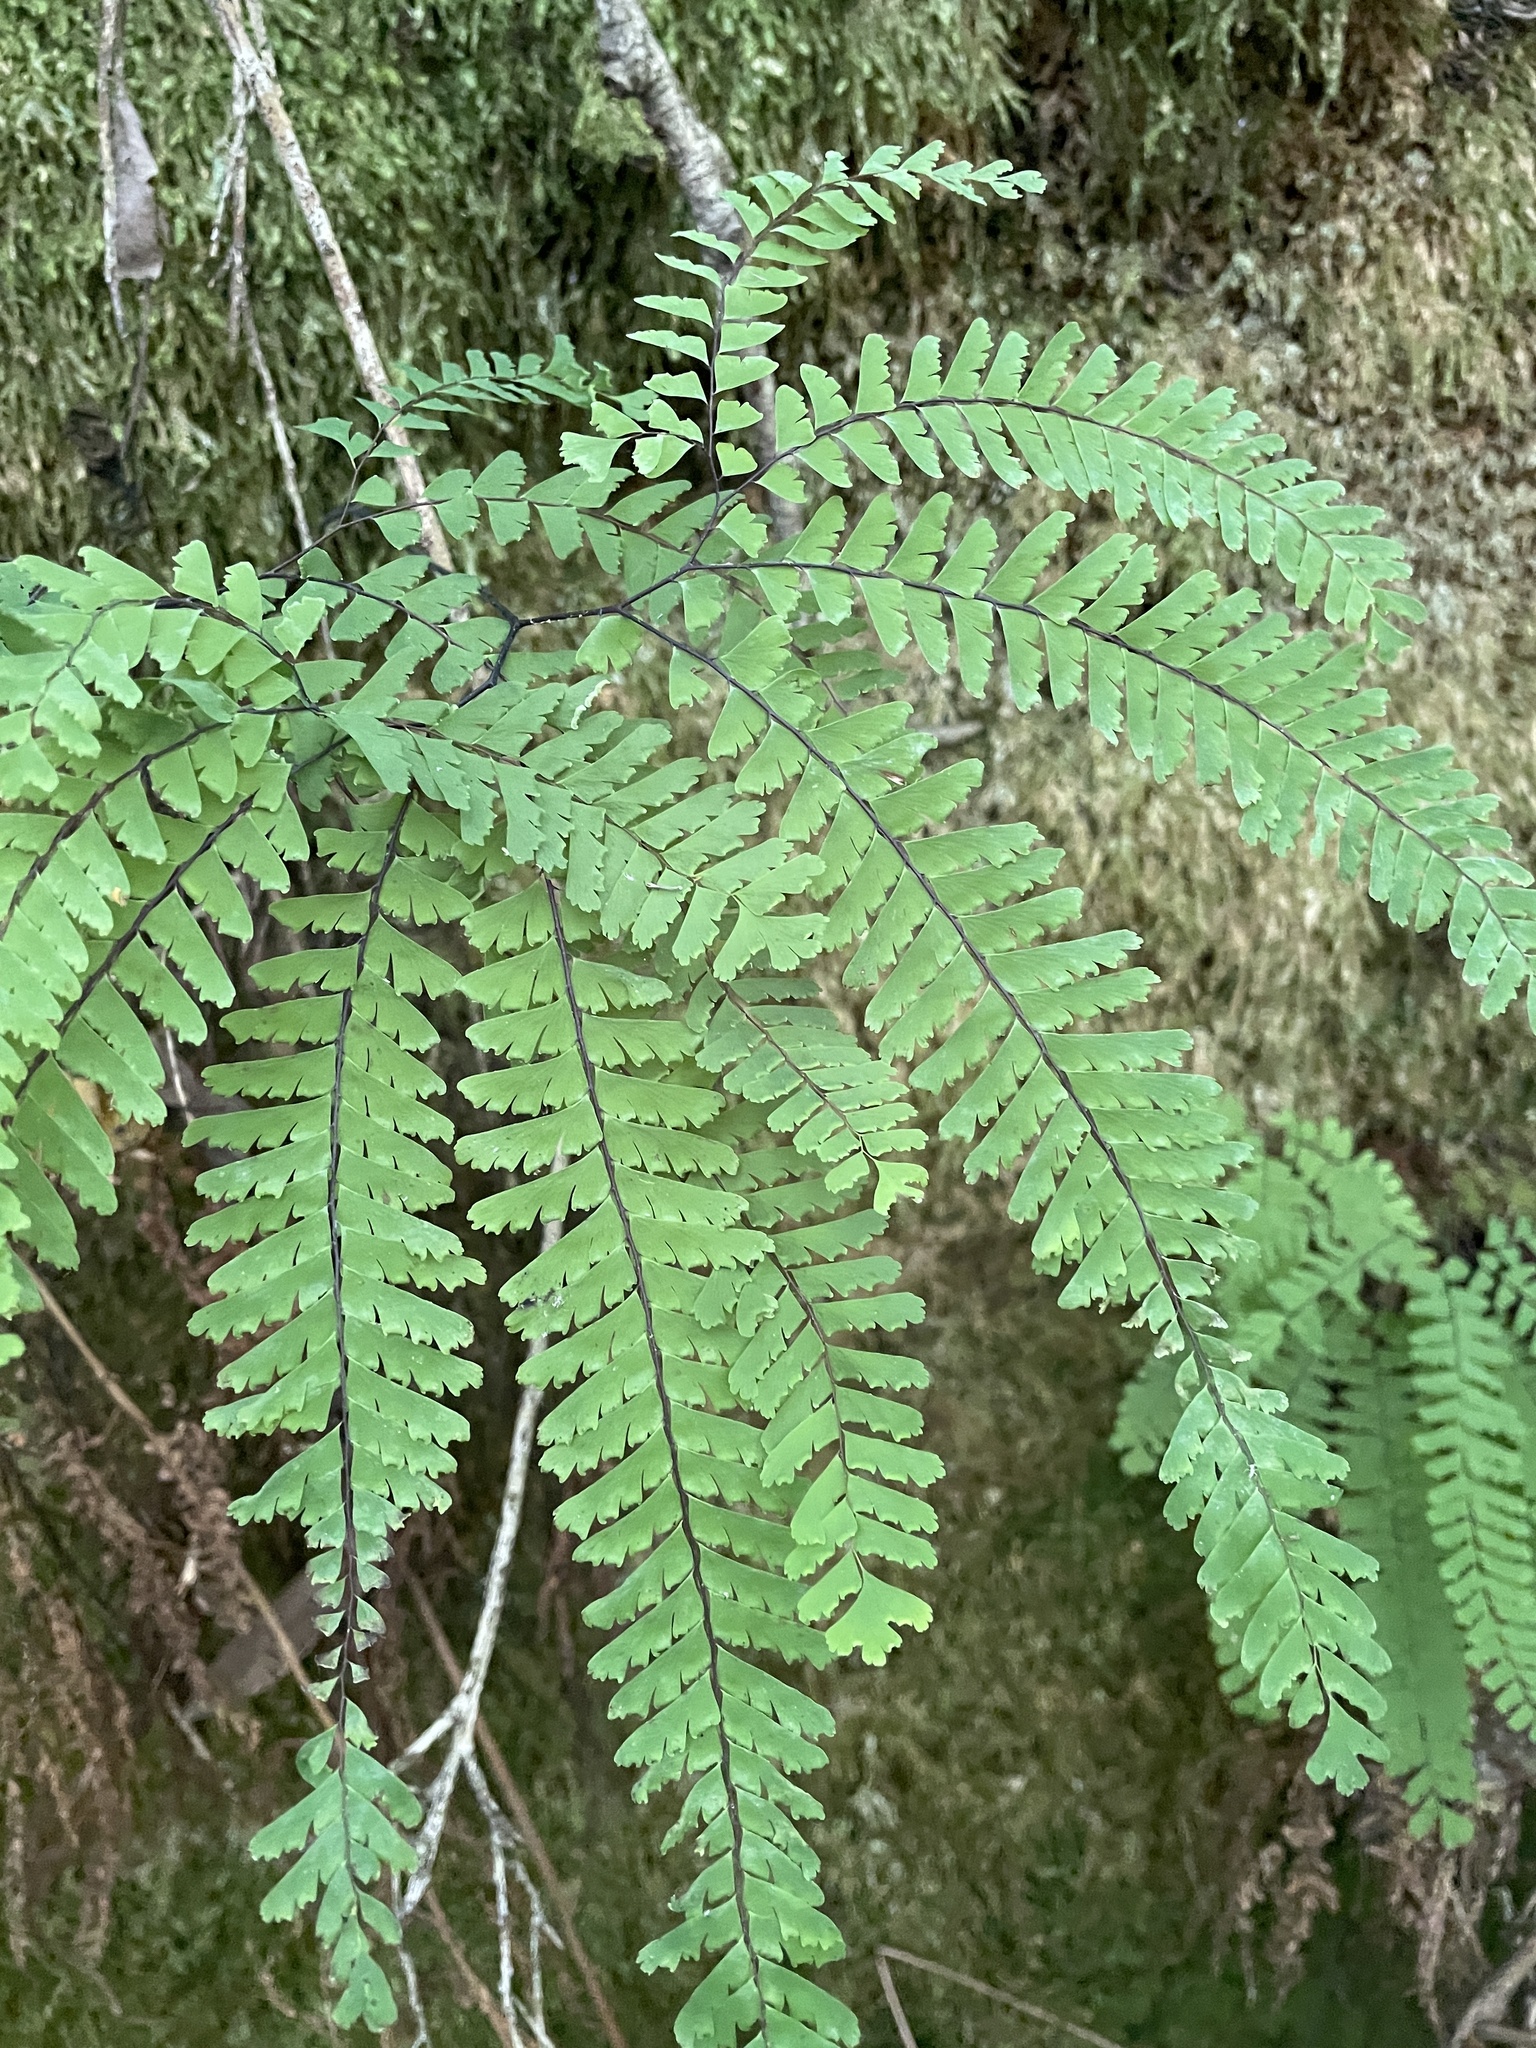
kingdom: Plantae
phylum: Tracheophyta
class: Polypodiopsida
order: Polypodiales
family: Pteridaceae
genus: Adiantum
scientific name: Adiantum aleuticum
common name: Aleutian maidenhair fern
